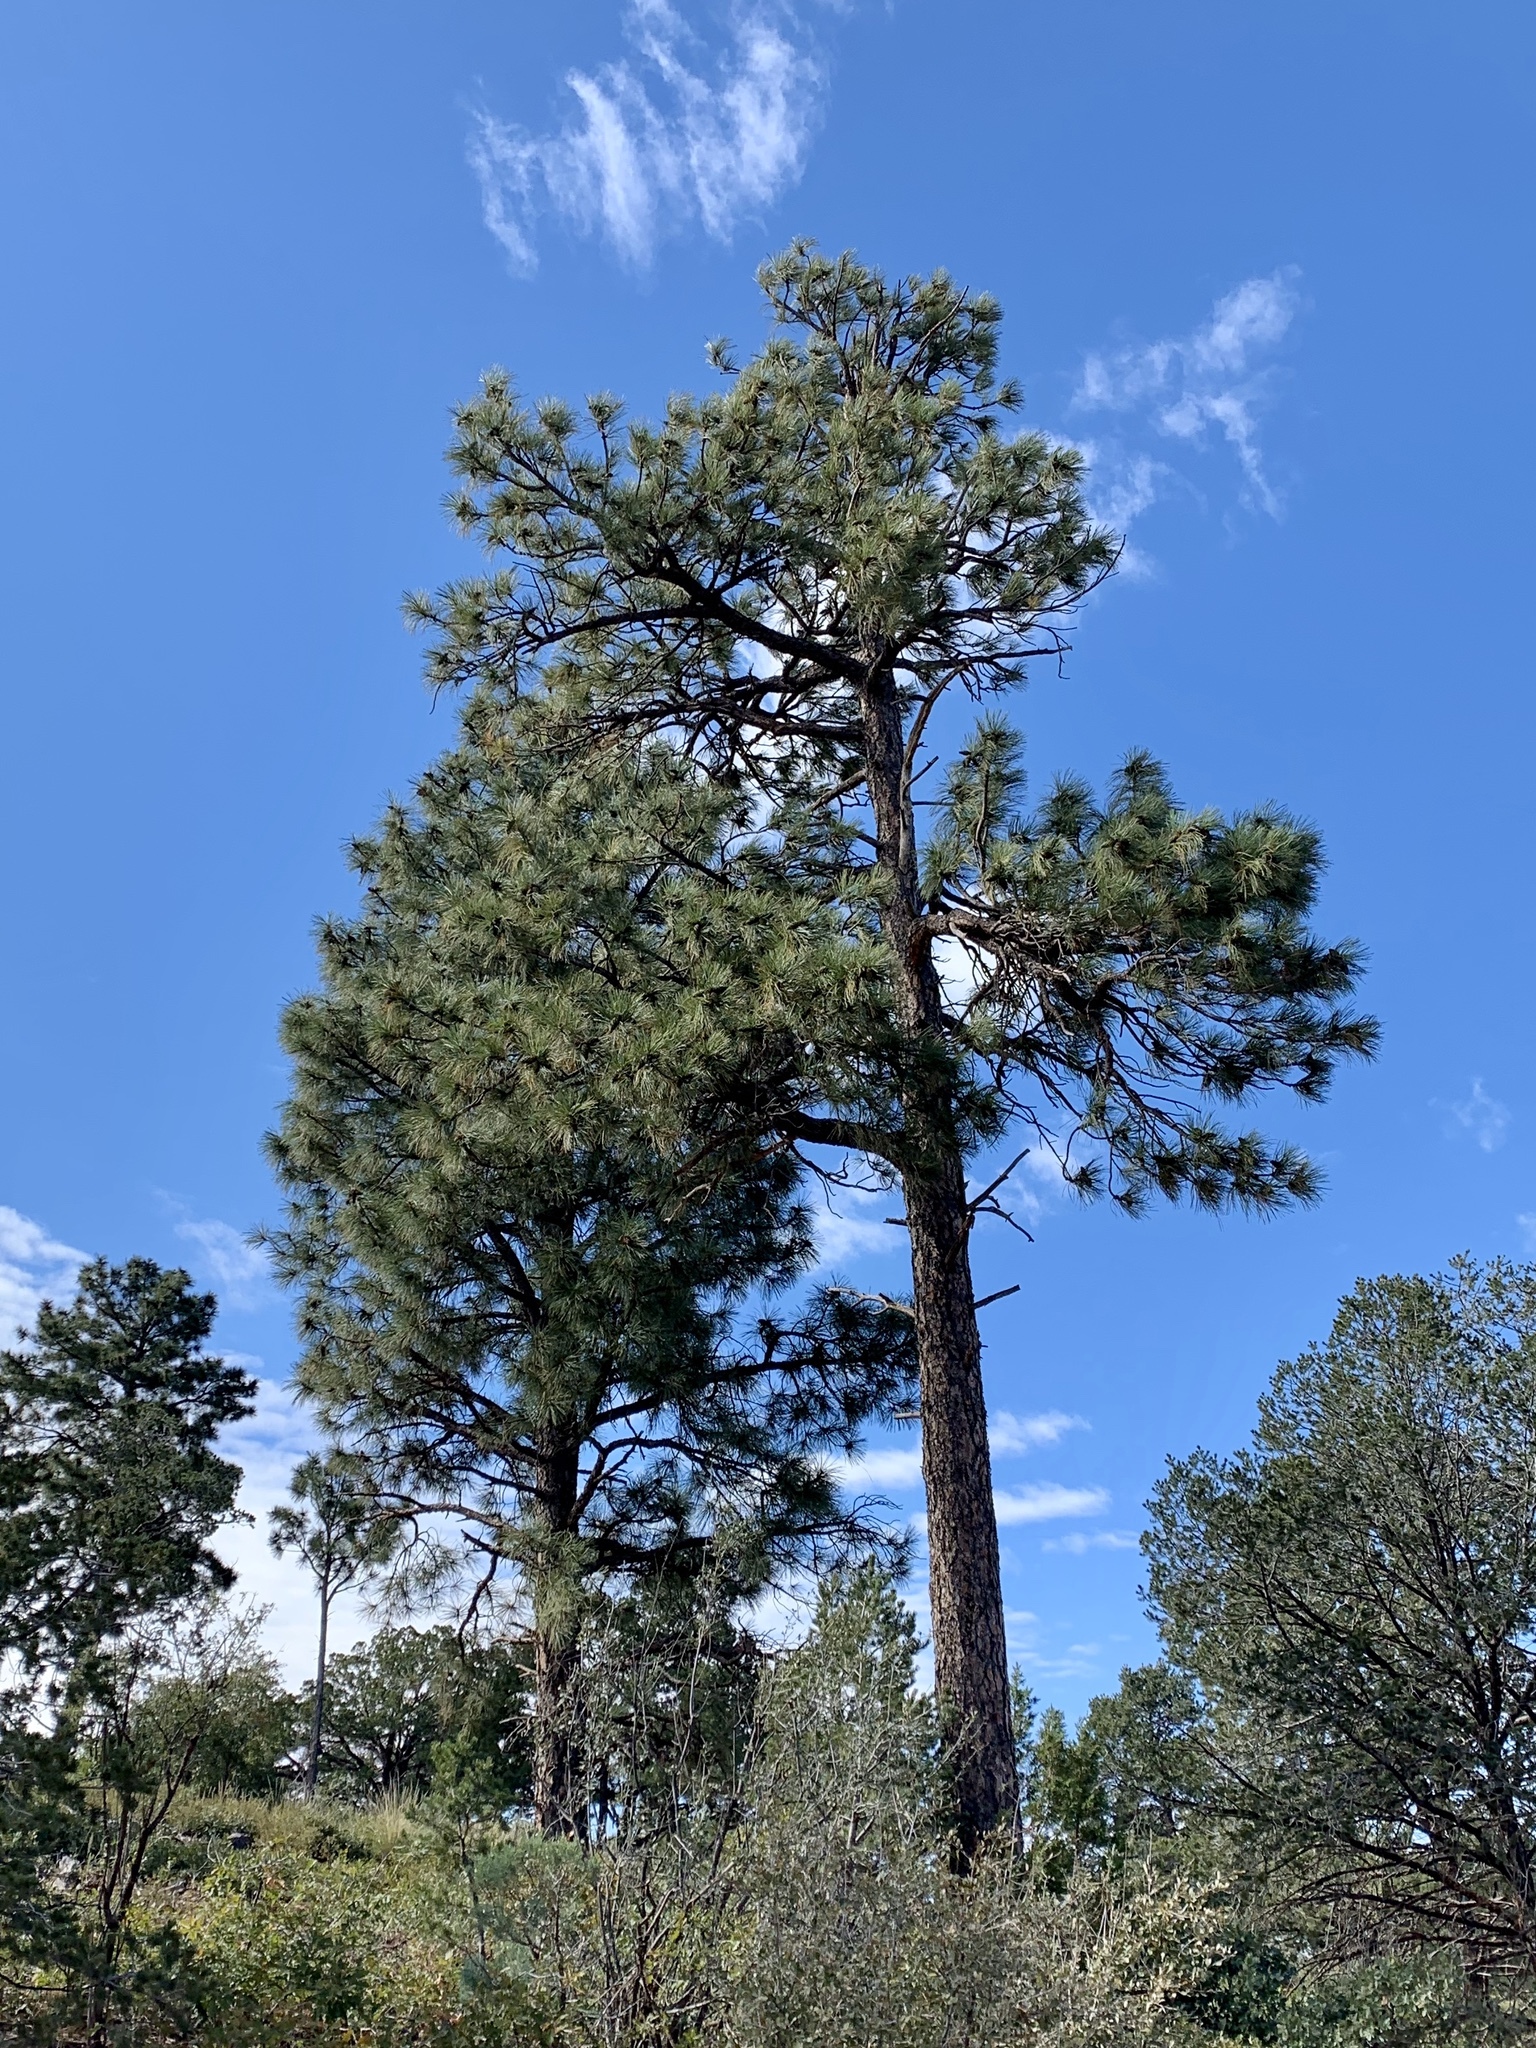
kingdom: Plantae
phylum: Tracheophyta
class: Pinopsida
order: Pinales
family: Pinaceae
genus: Pinus
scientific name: Pinus ponderosa
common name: Western yellow-pine
